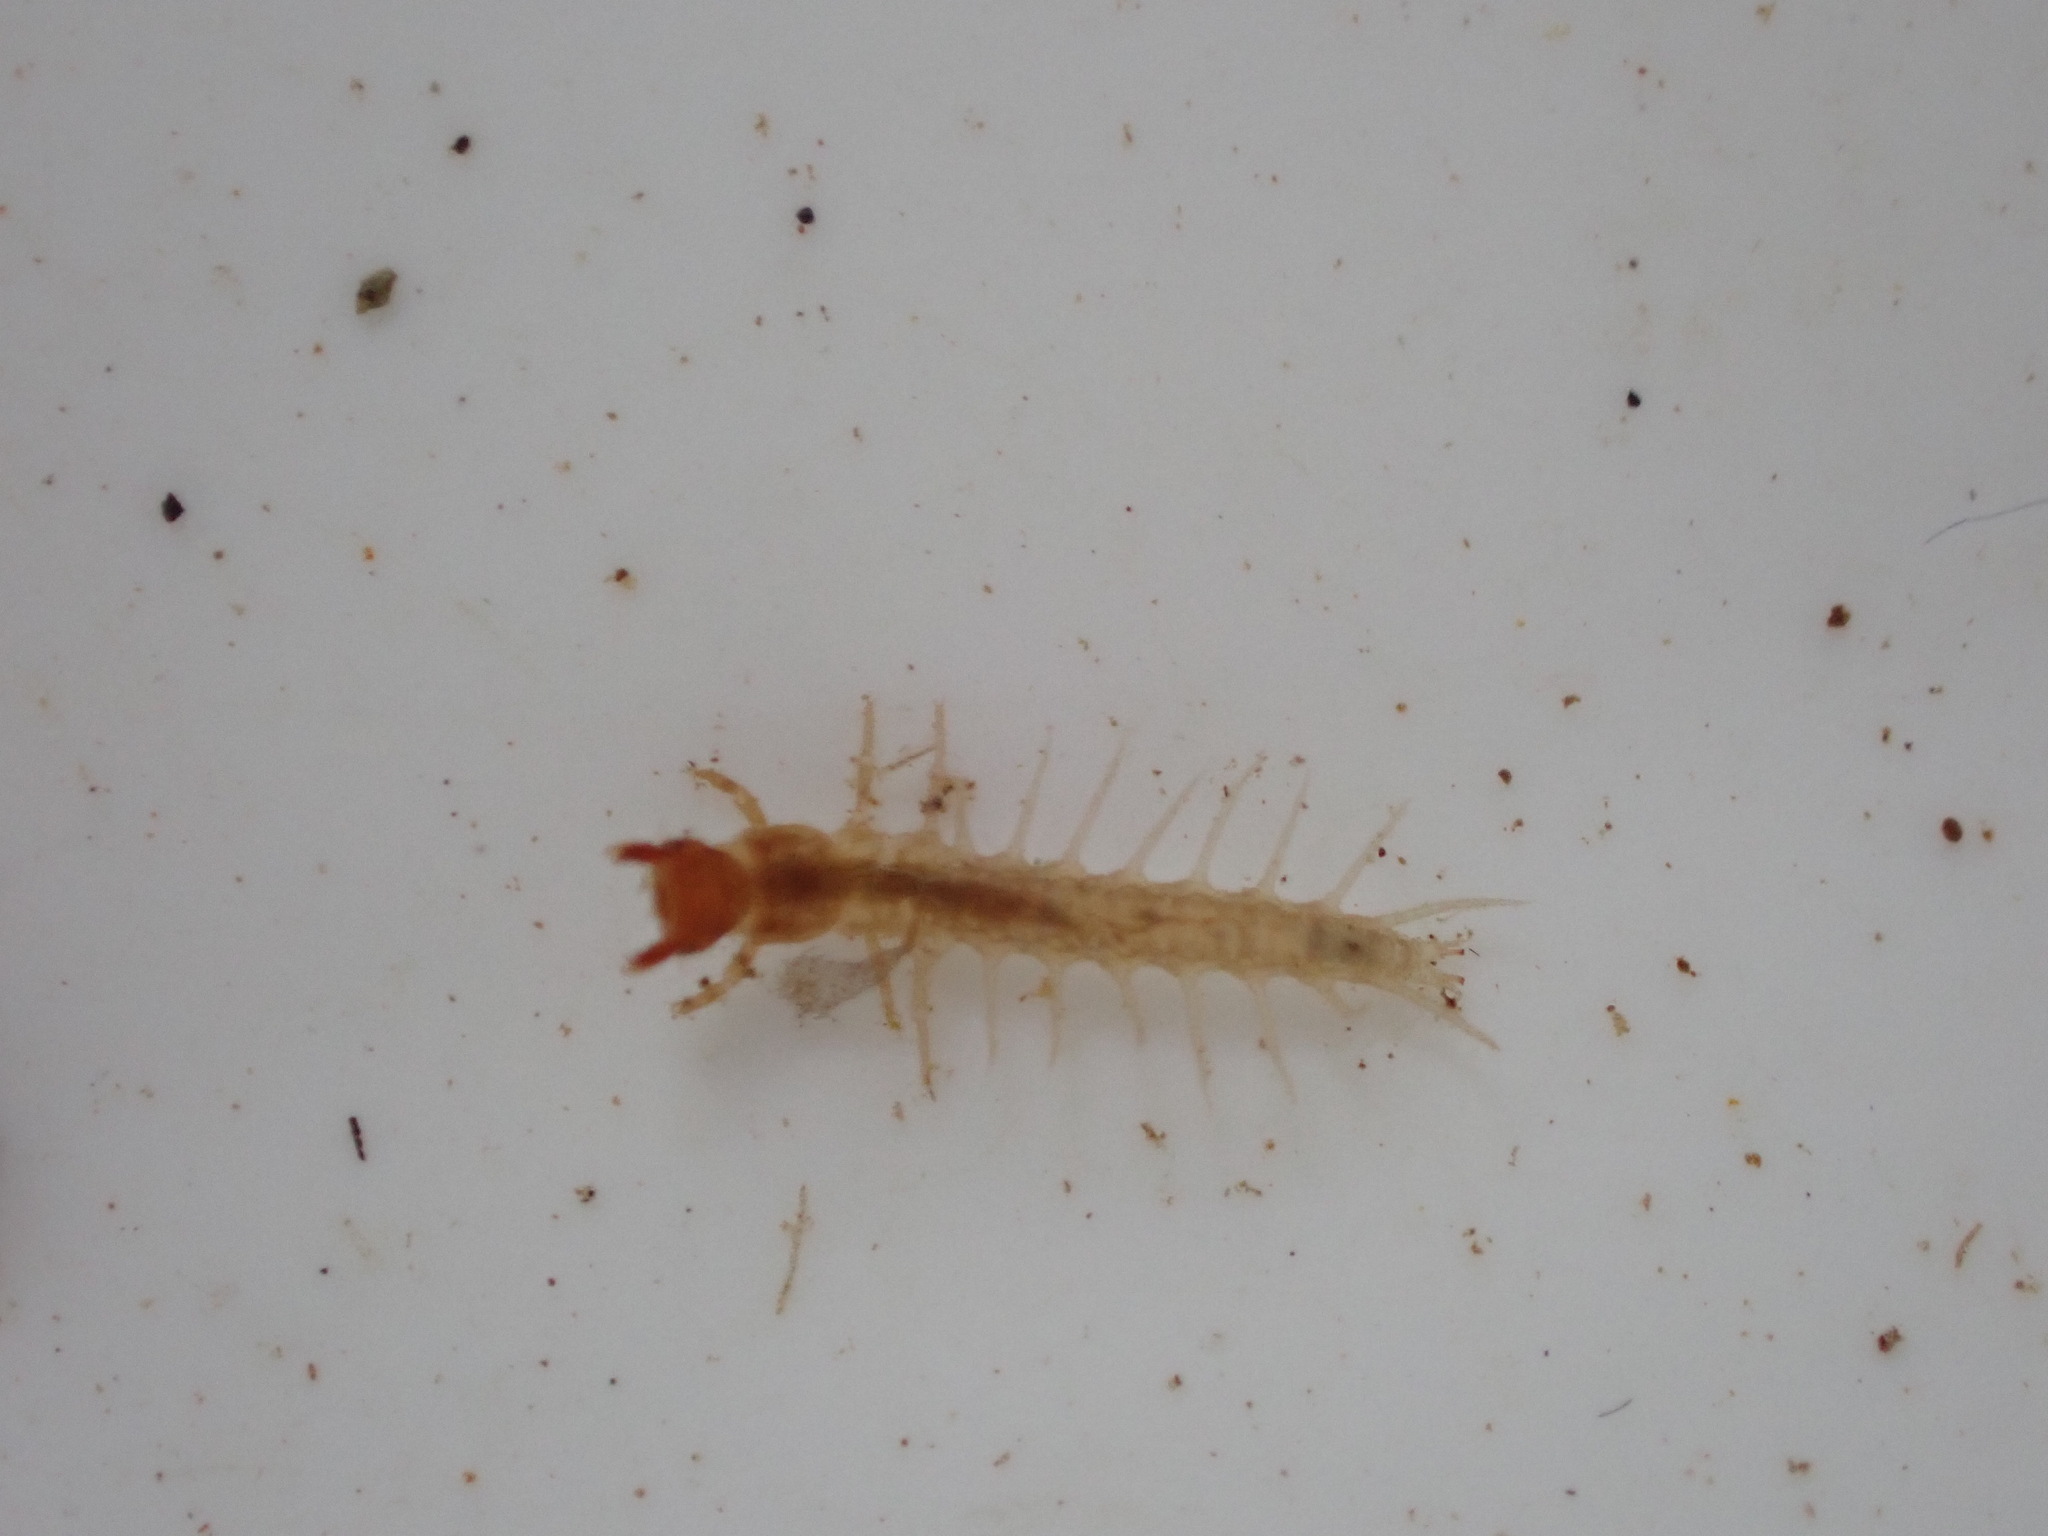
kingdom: Animalia
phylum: Arthropoda
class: Insecta
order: Megaloptera
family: Corydalidae
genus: Archichauliodes
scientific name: Archichauliodes diversus
